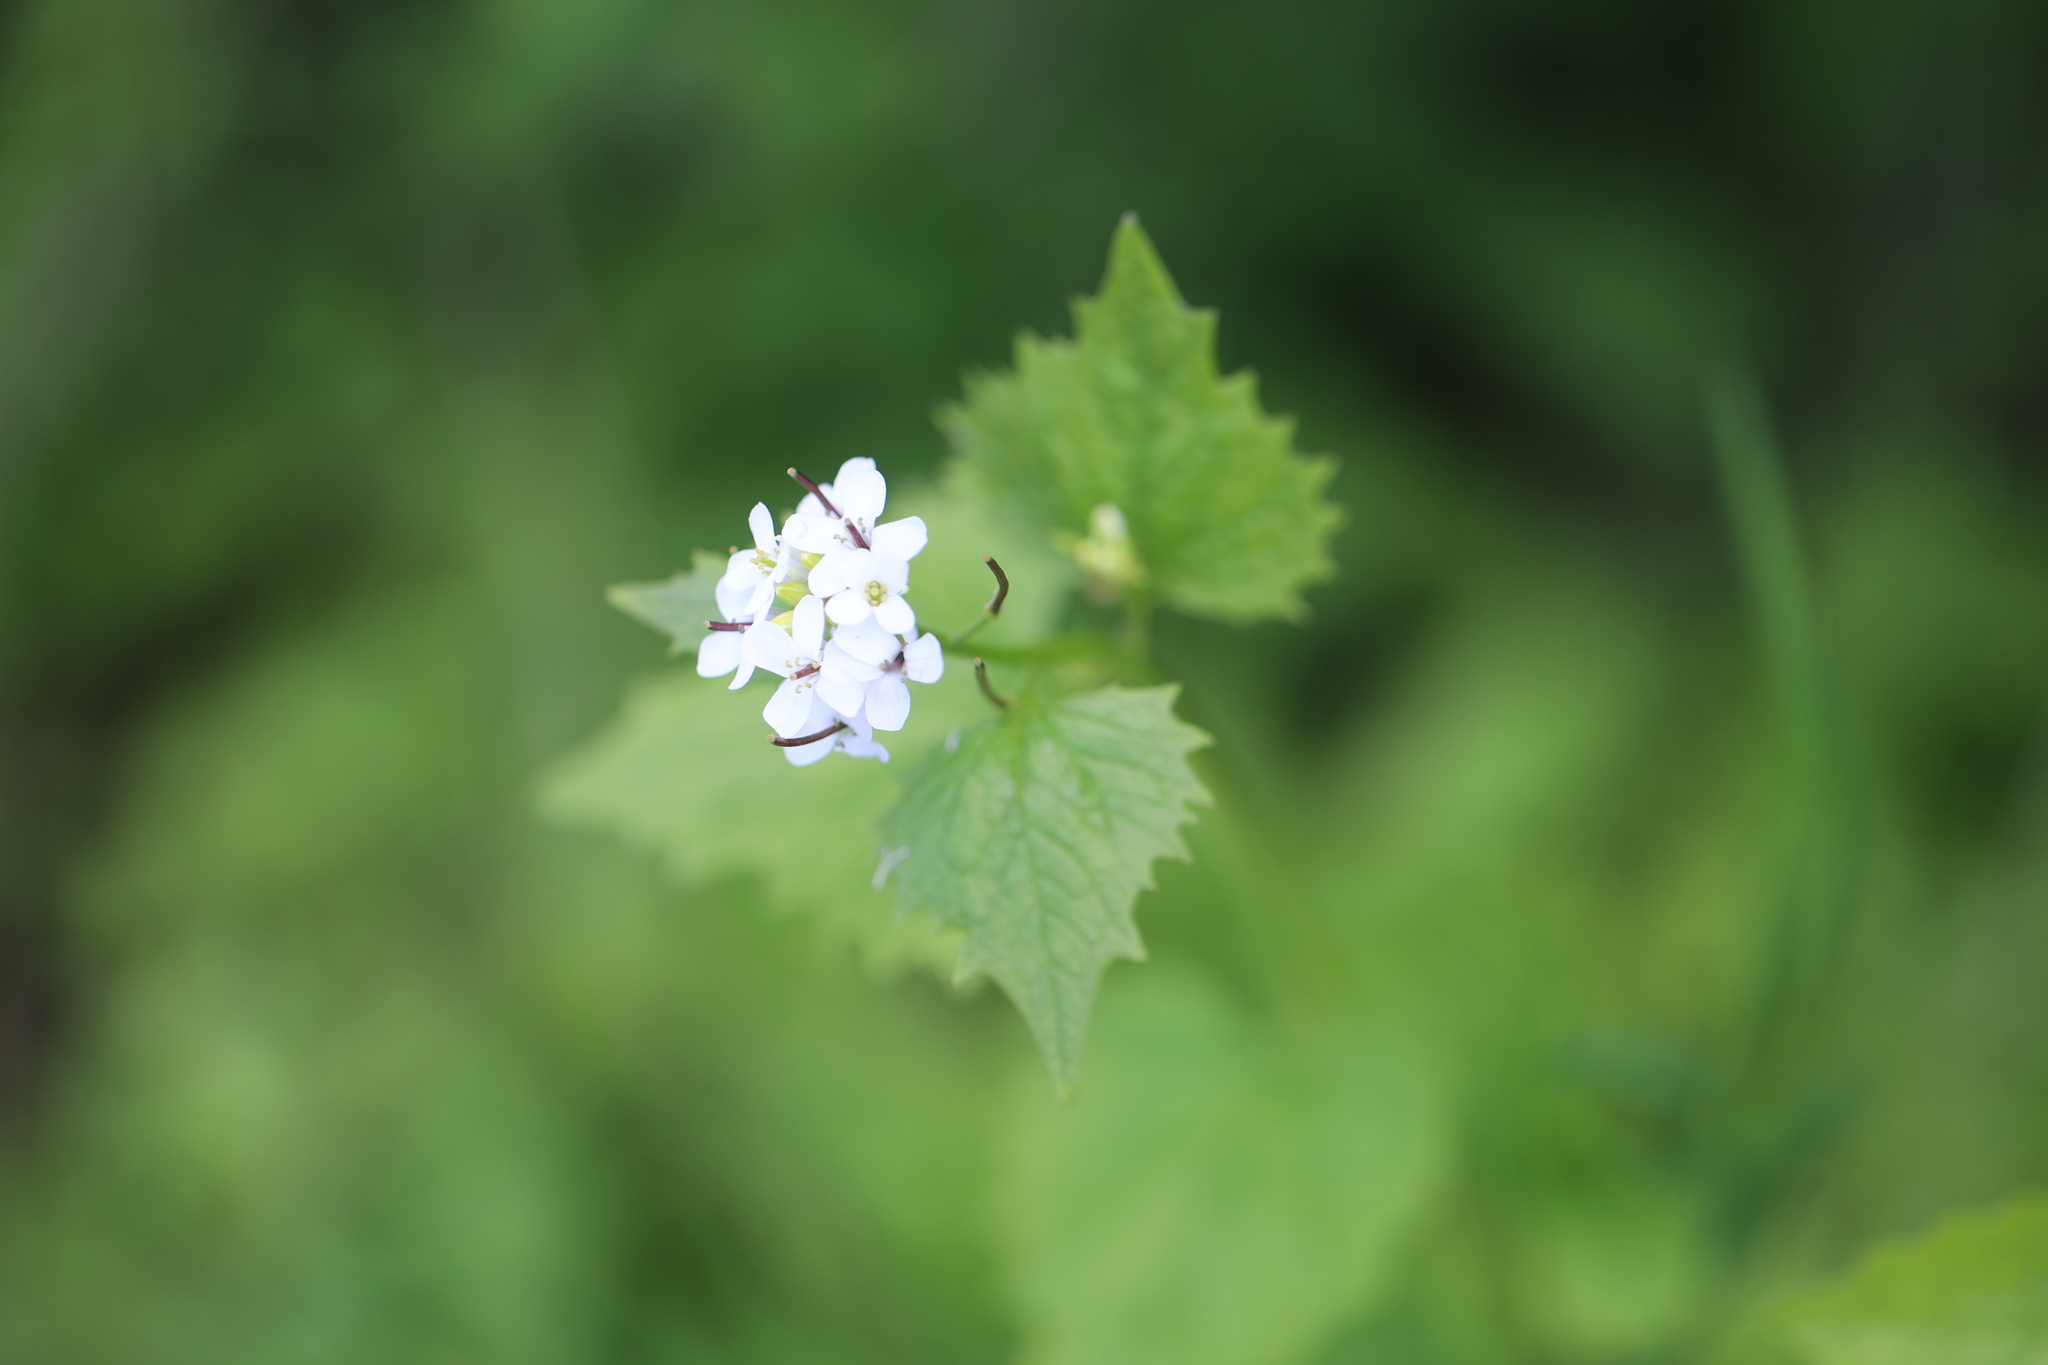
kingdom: Plantae
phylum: Tracheophyta
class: Magnoliopsida
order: Brassicales
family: Brassicaceae
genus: Alliaria
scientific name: Alliaria petiolata
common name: Garlic mustard
